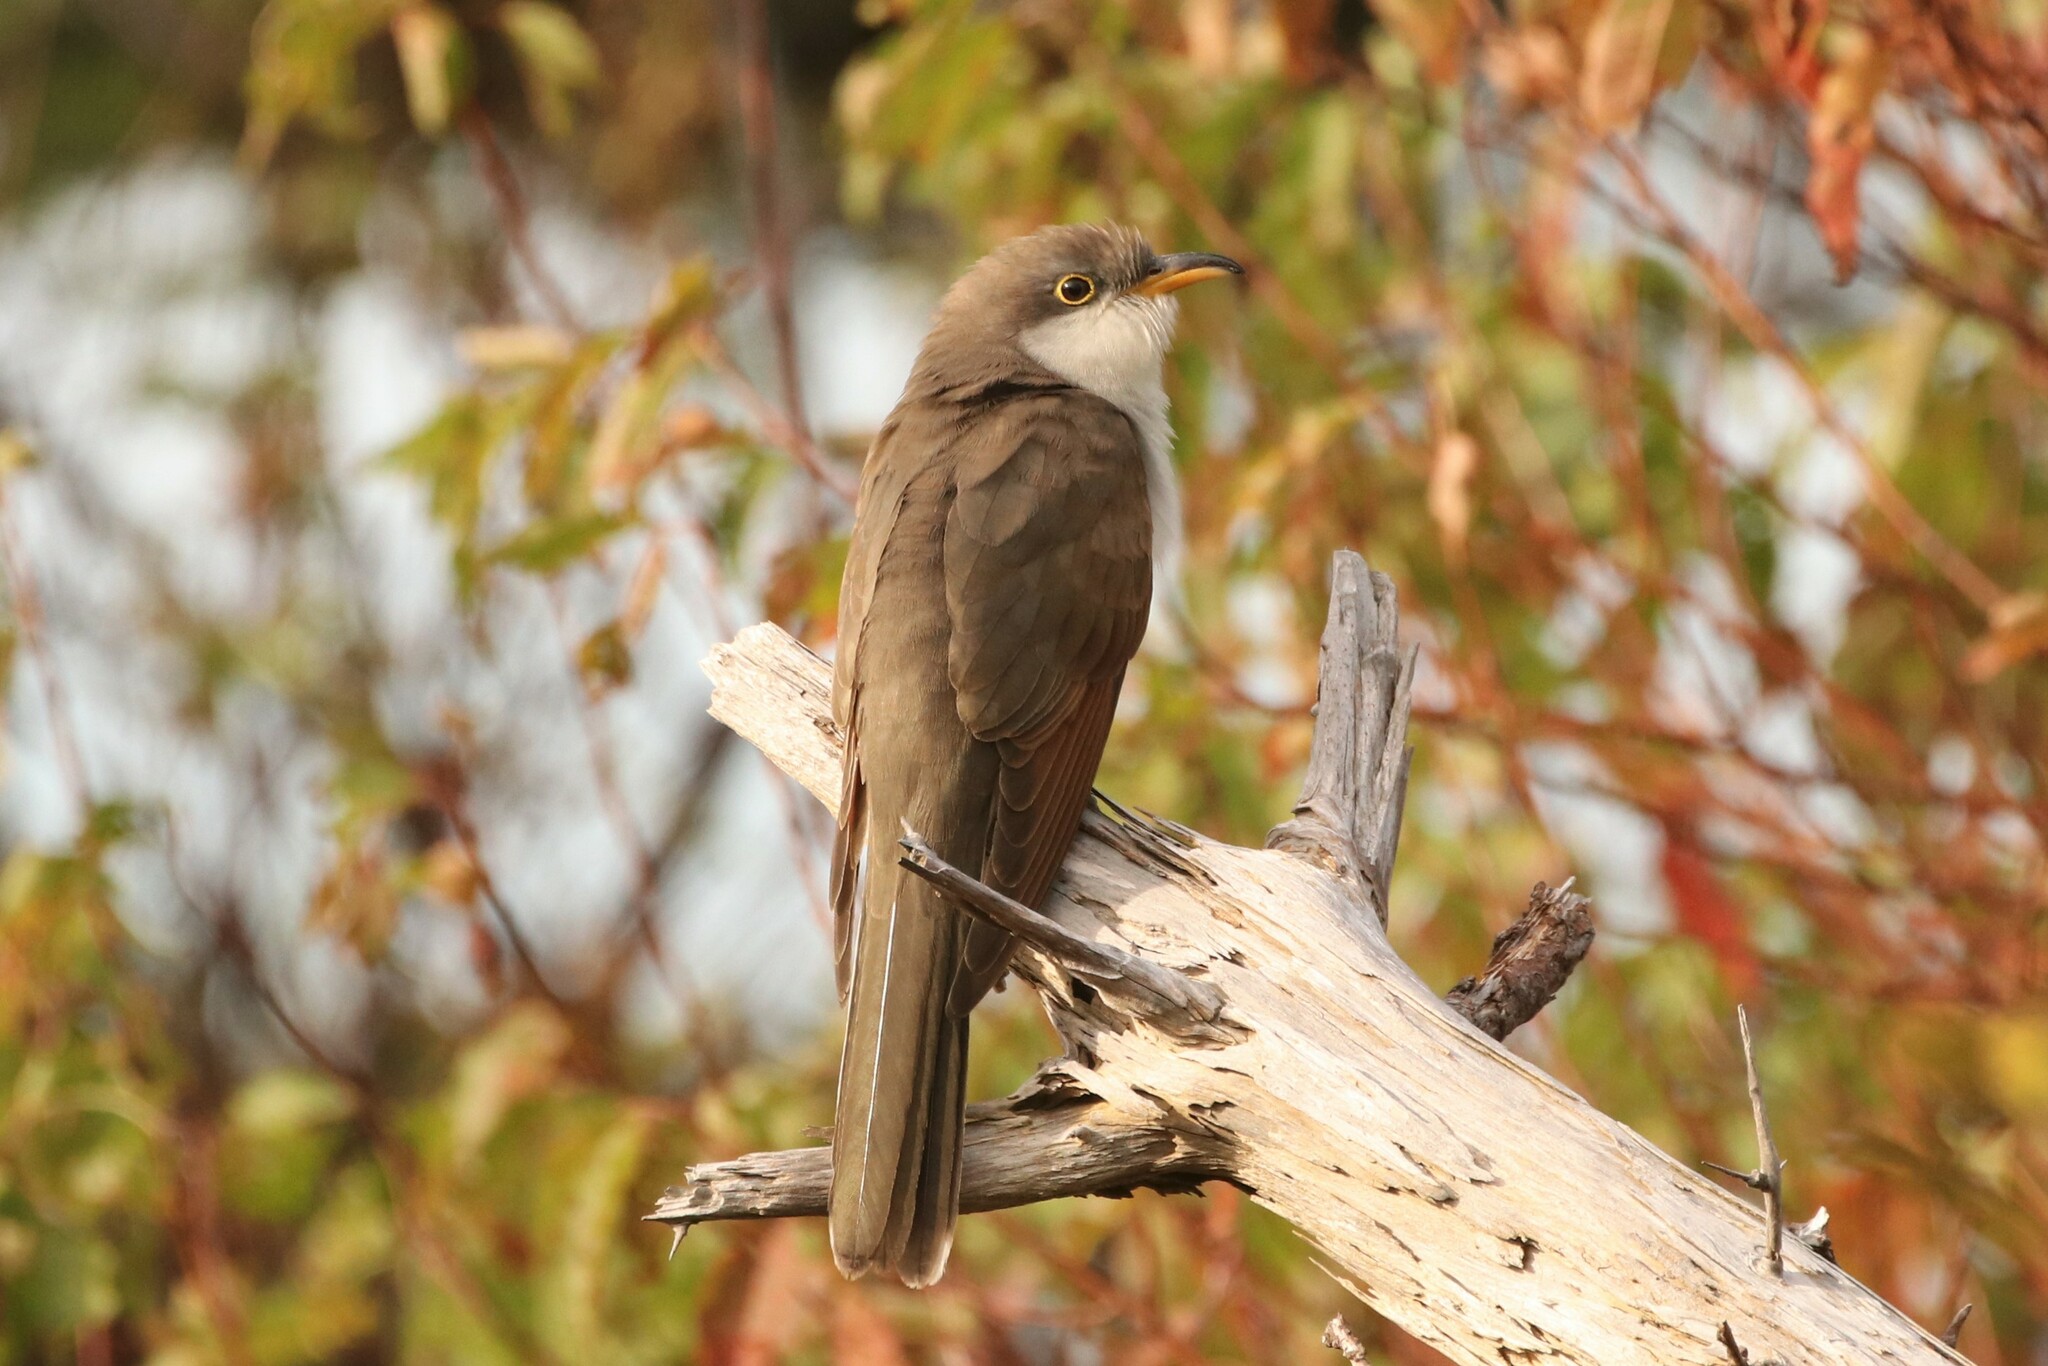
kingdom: Animalia
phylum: Chordata
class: Aves
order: Cuculiformes
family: Cuculidae
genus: Coccyzus
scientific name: Coccyzus americanus
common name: Yellow-billed cuckoo
